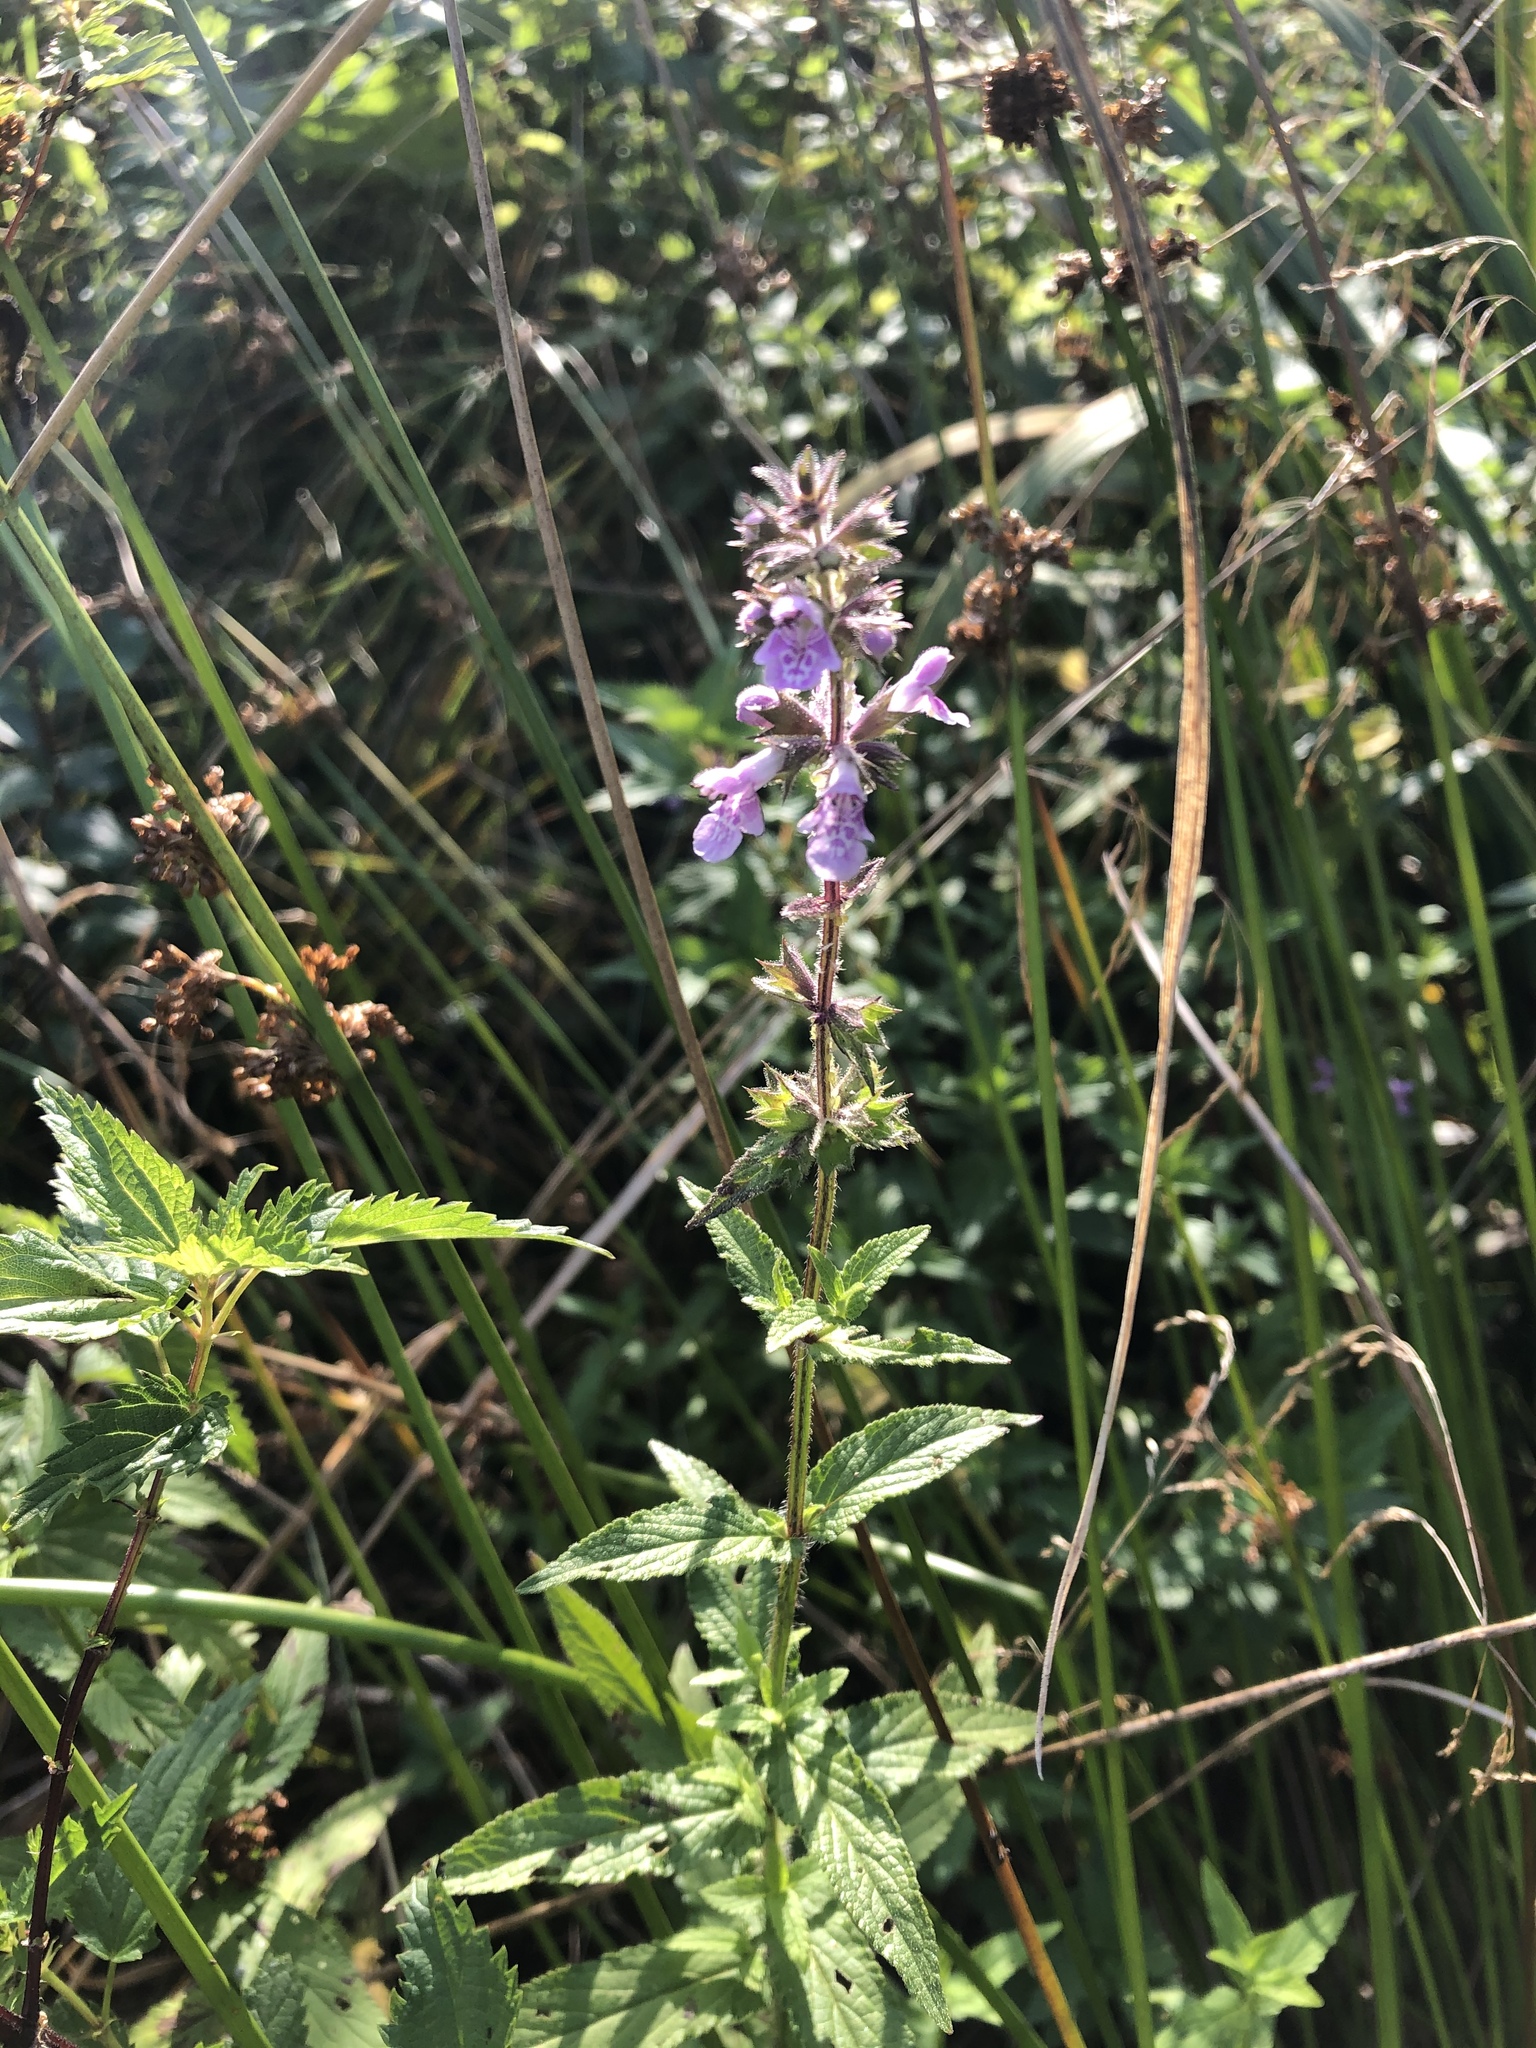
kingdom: Plantae
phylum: Tracheophyta
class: Magnoliopsida
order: Lamiales
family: Lamiaceae
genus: Stachys
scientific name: Stachys palustris
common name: Marsh woundwort
